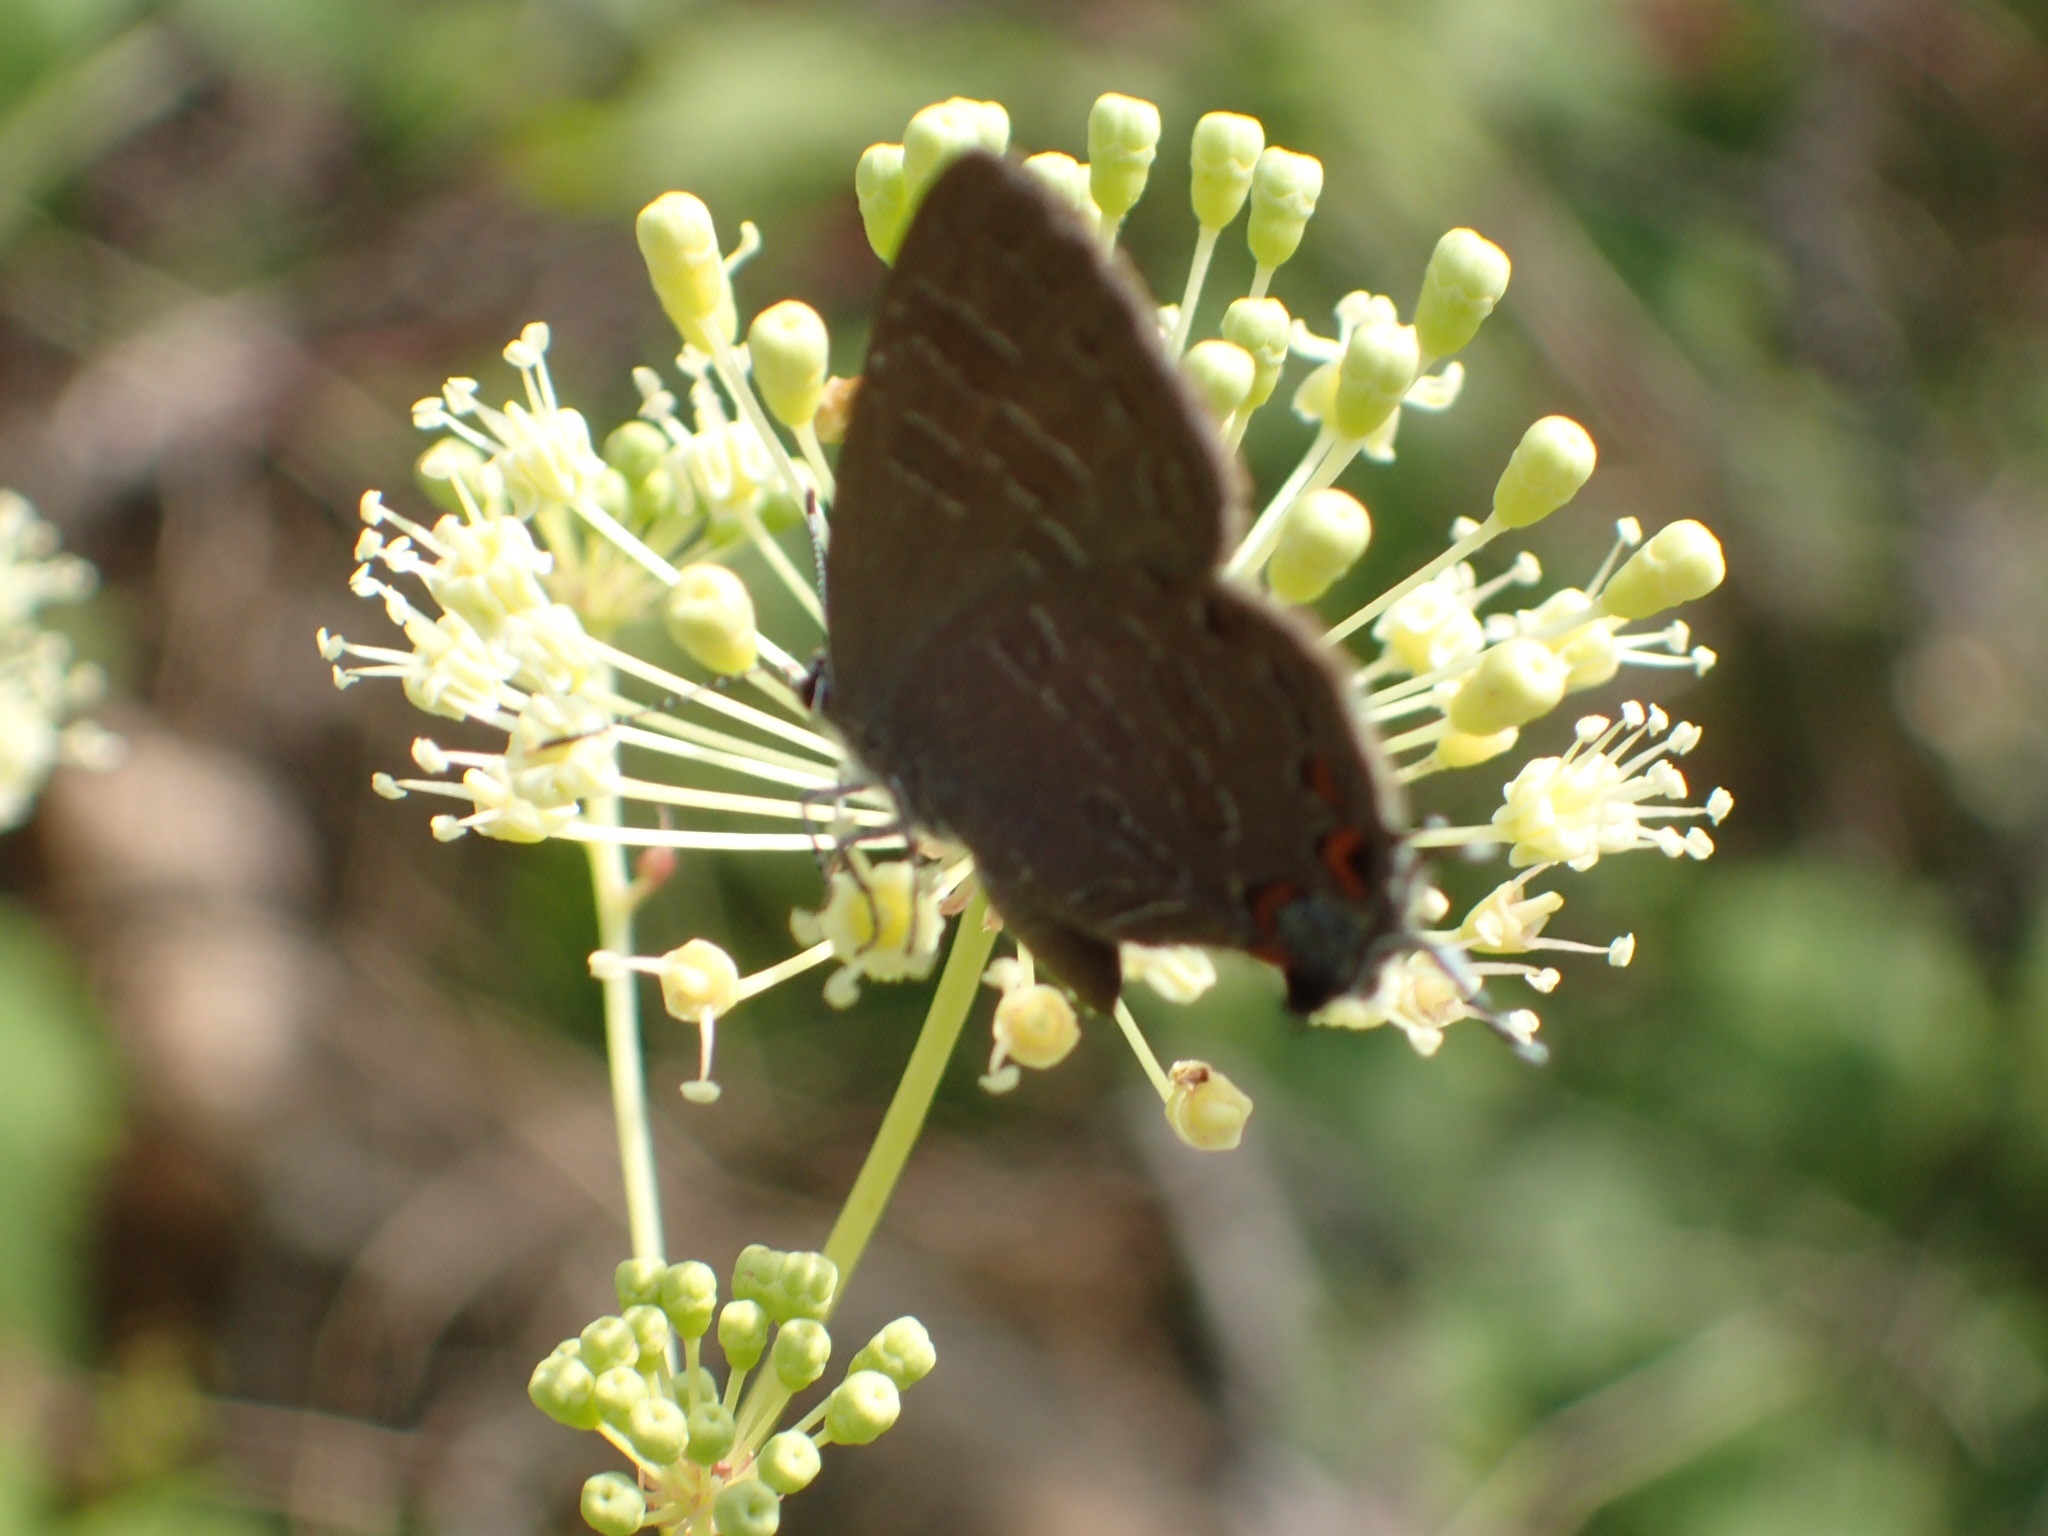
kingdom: Animalia
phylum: Arthropoda
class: Insecta
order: Lepidoptera
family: Lycaenidae
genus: Satyrium
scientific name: Satyrium liparops
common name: Striped hairstreak
